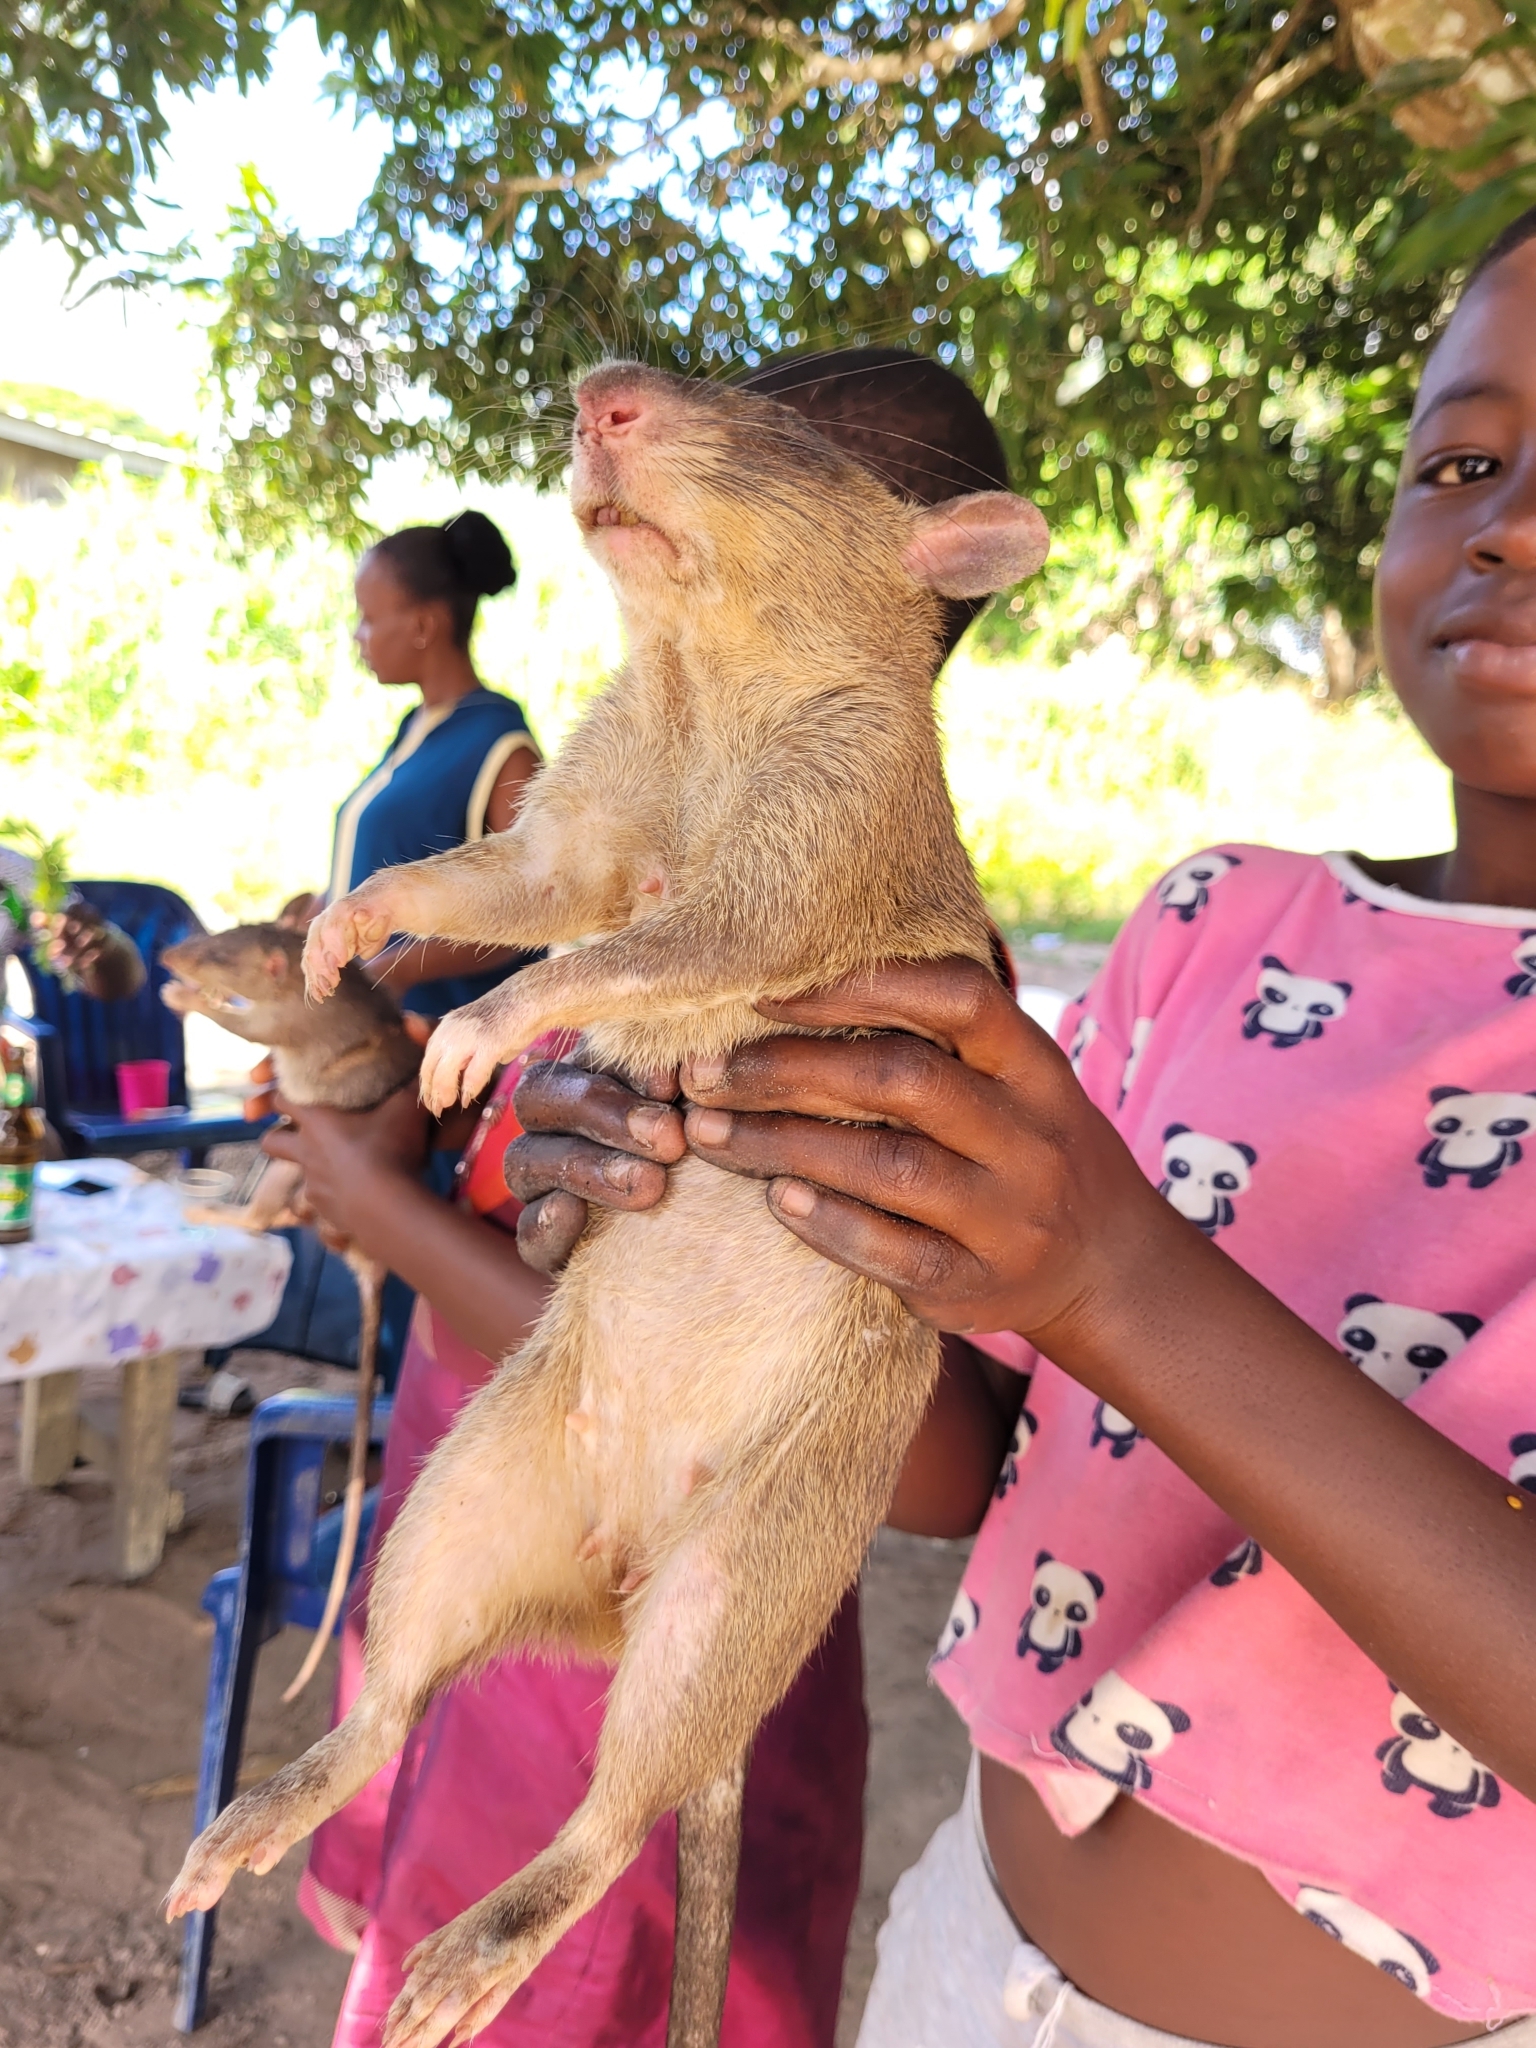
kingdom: Animalia
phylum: Chordata
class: Mammalia
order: Rodentia
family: Nesomyidae
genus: Cricetomys
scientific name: Cricetomys gambianus
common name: Northern giant pouched rat
